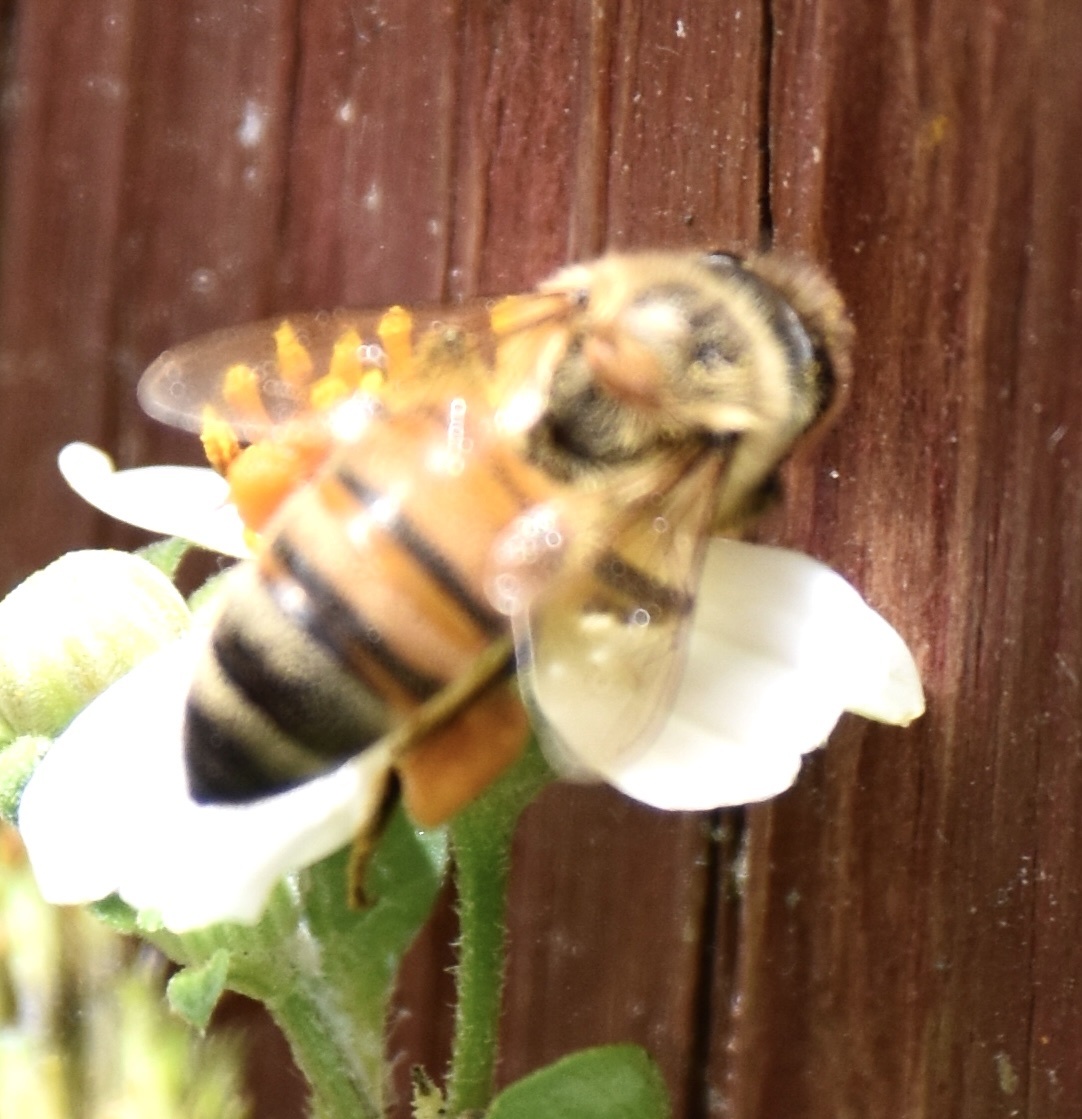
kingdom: Animalia
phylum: Arthropoda
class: Insecta
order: Hymenoptera
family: Apidae
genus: Apis
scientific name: Apis mellifera
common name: Honey bee
